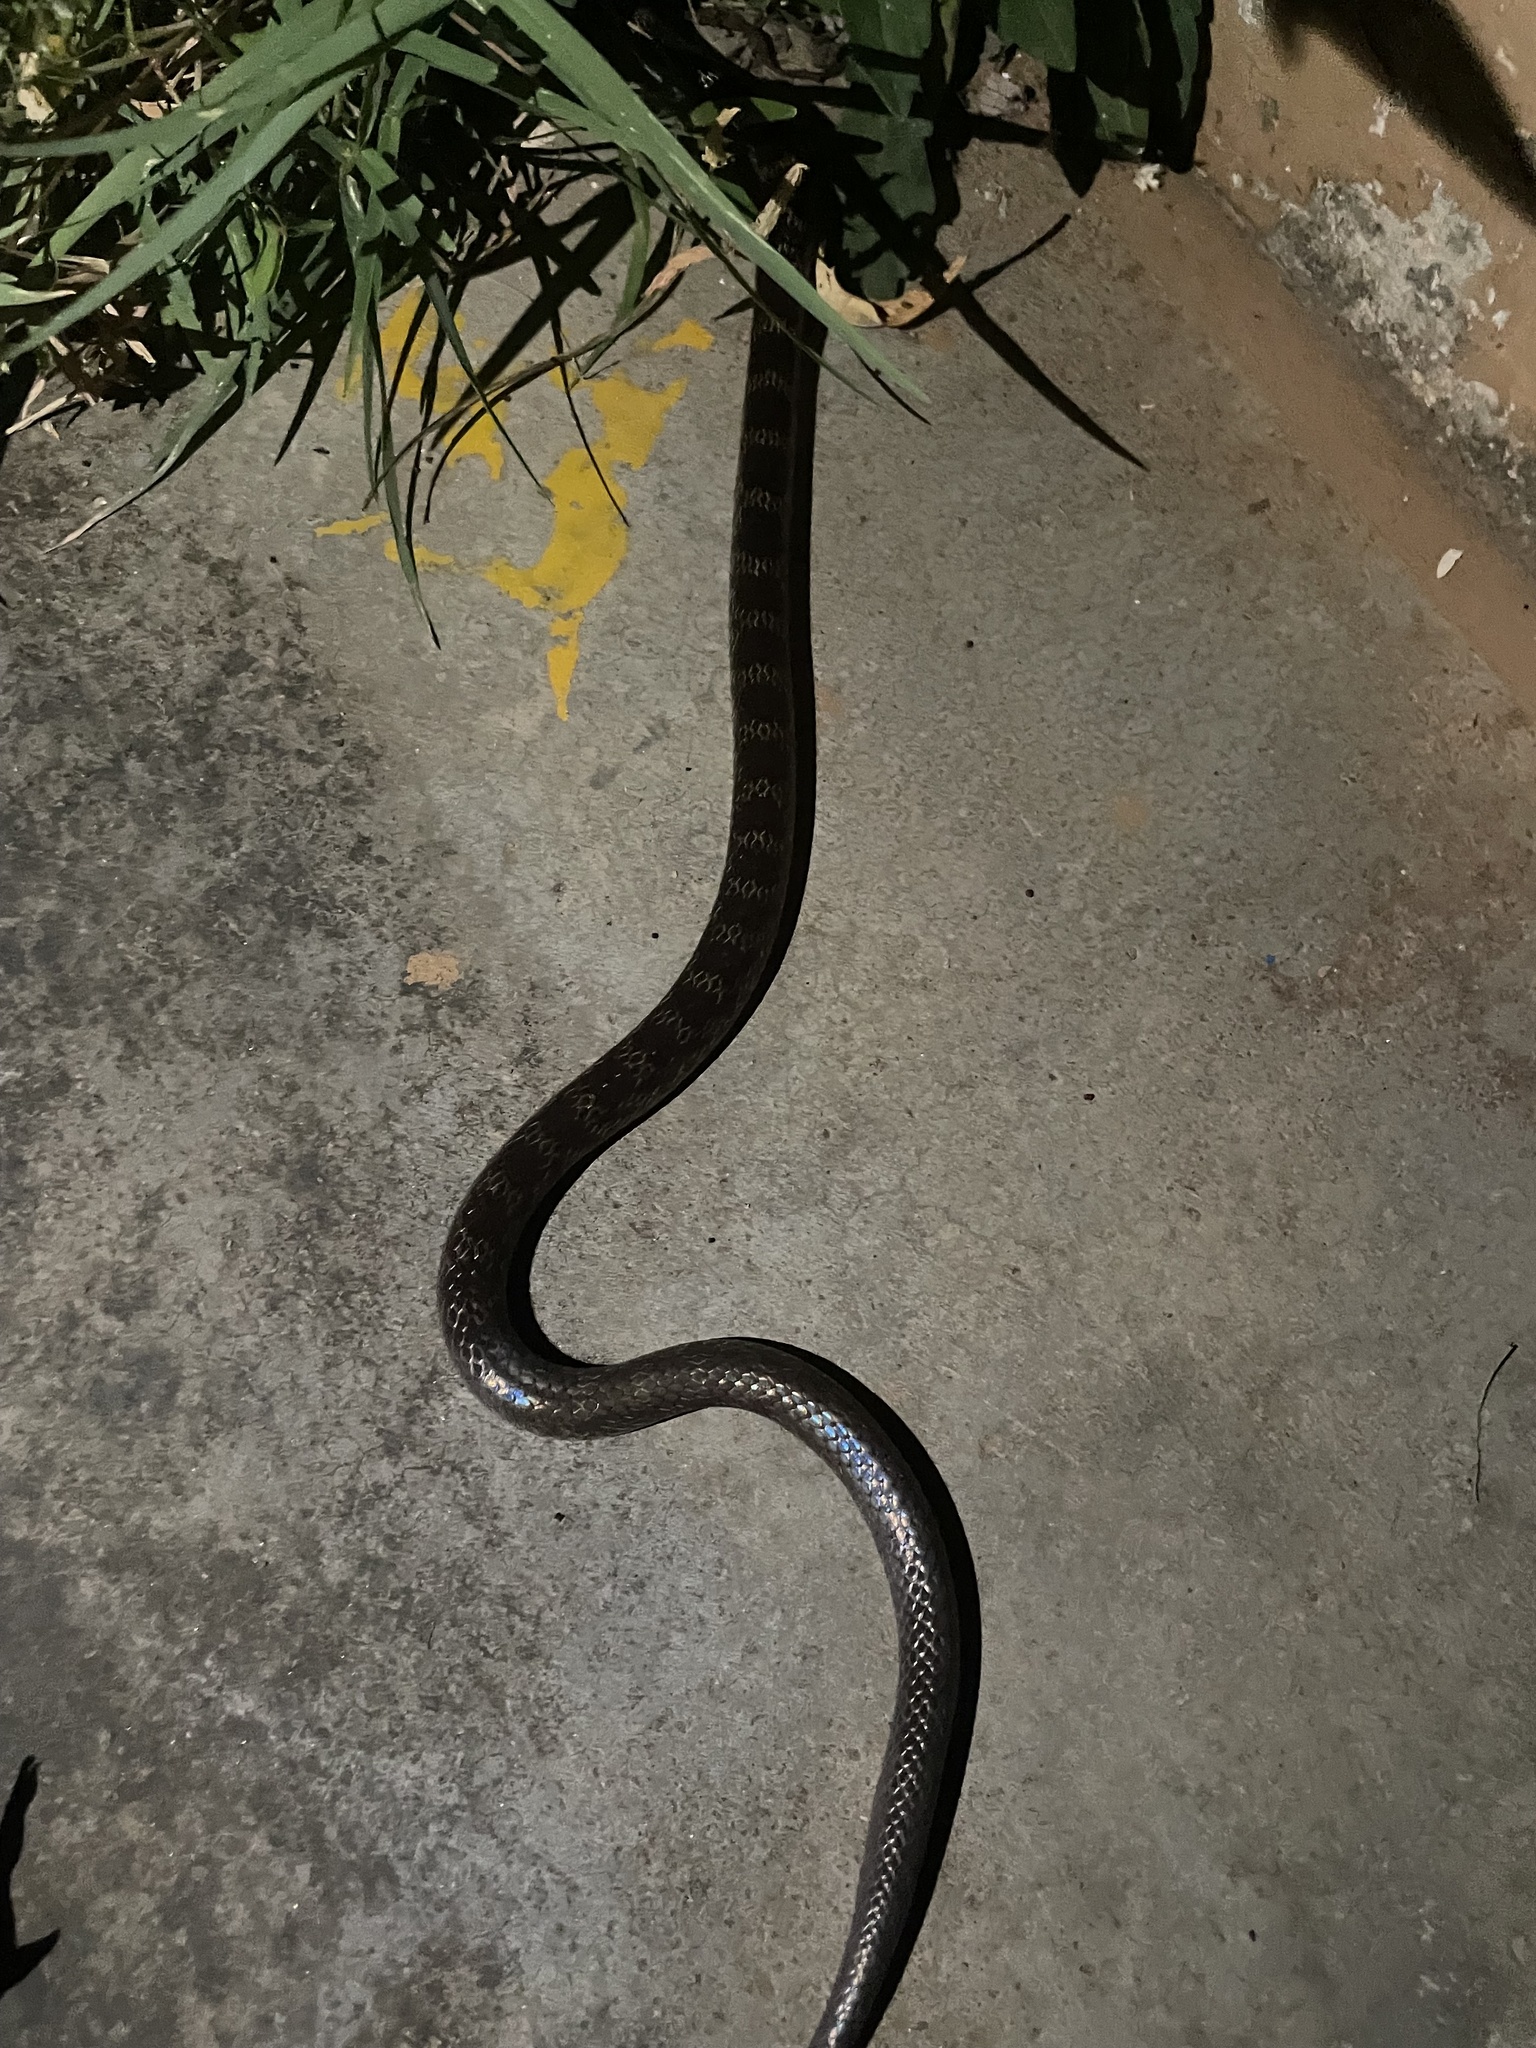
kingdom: Animalia
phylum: Chordata
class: Squamata
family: Colubridae
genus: Lycodon
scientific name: Lycodon travancoricus
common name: Travancore wolf snake
